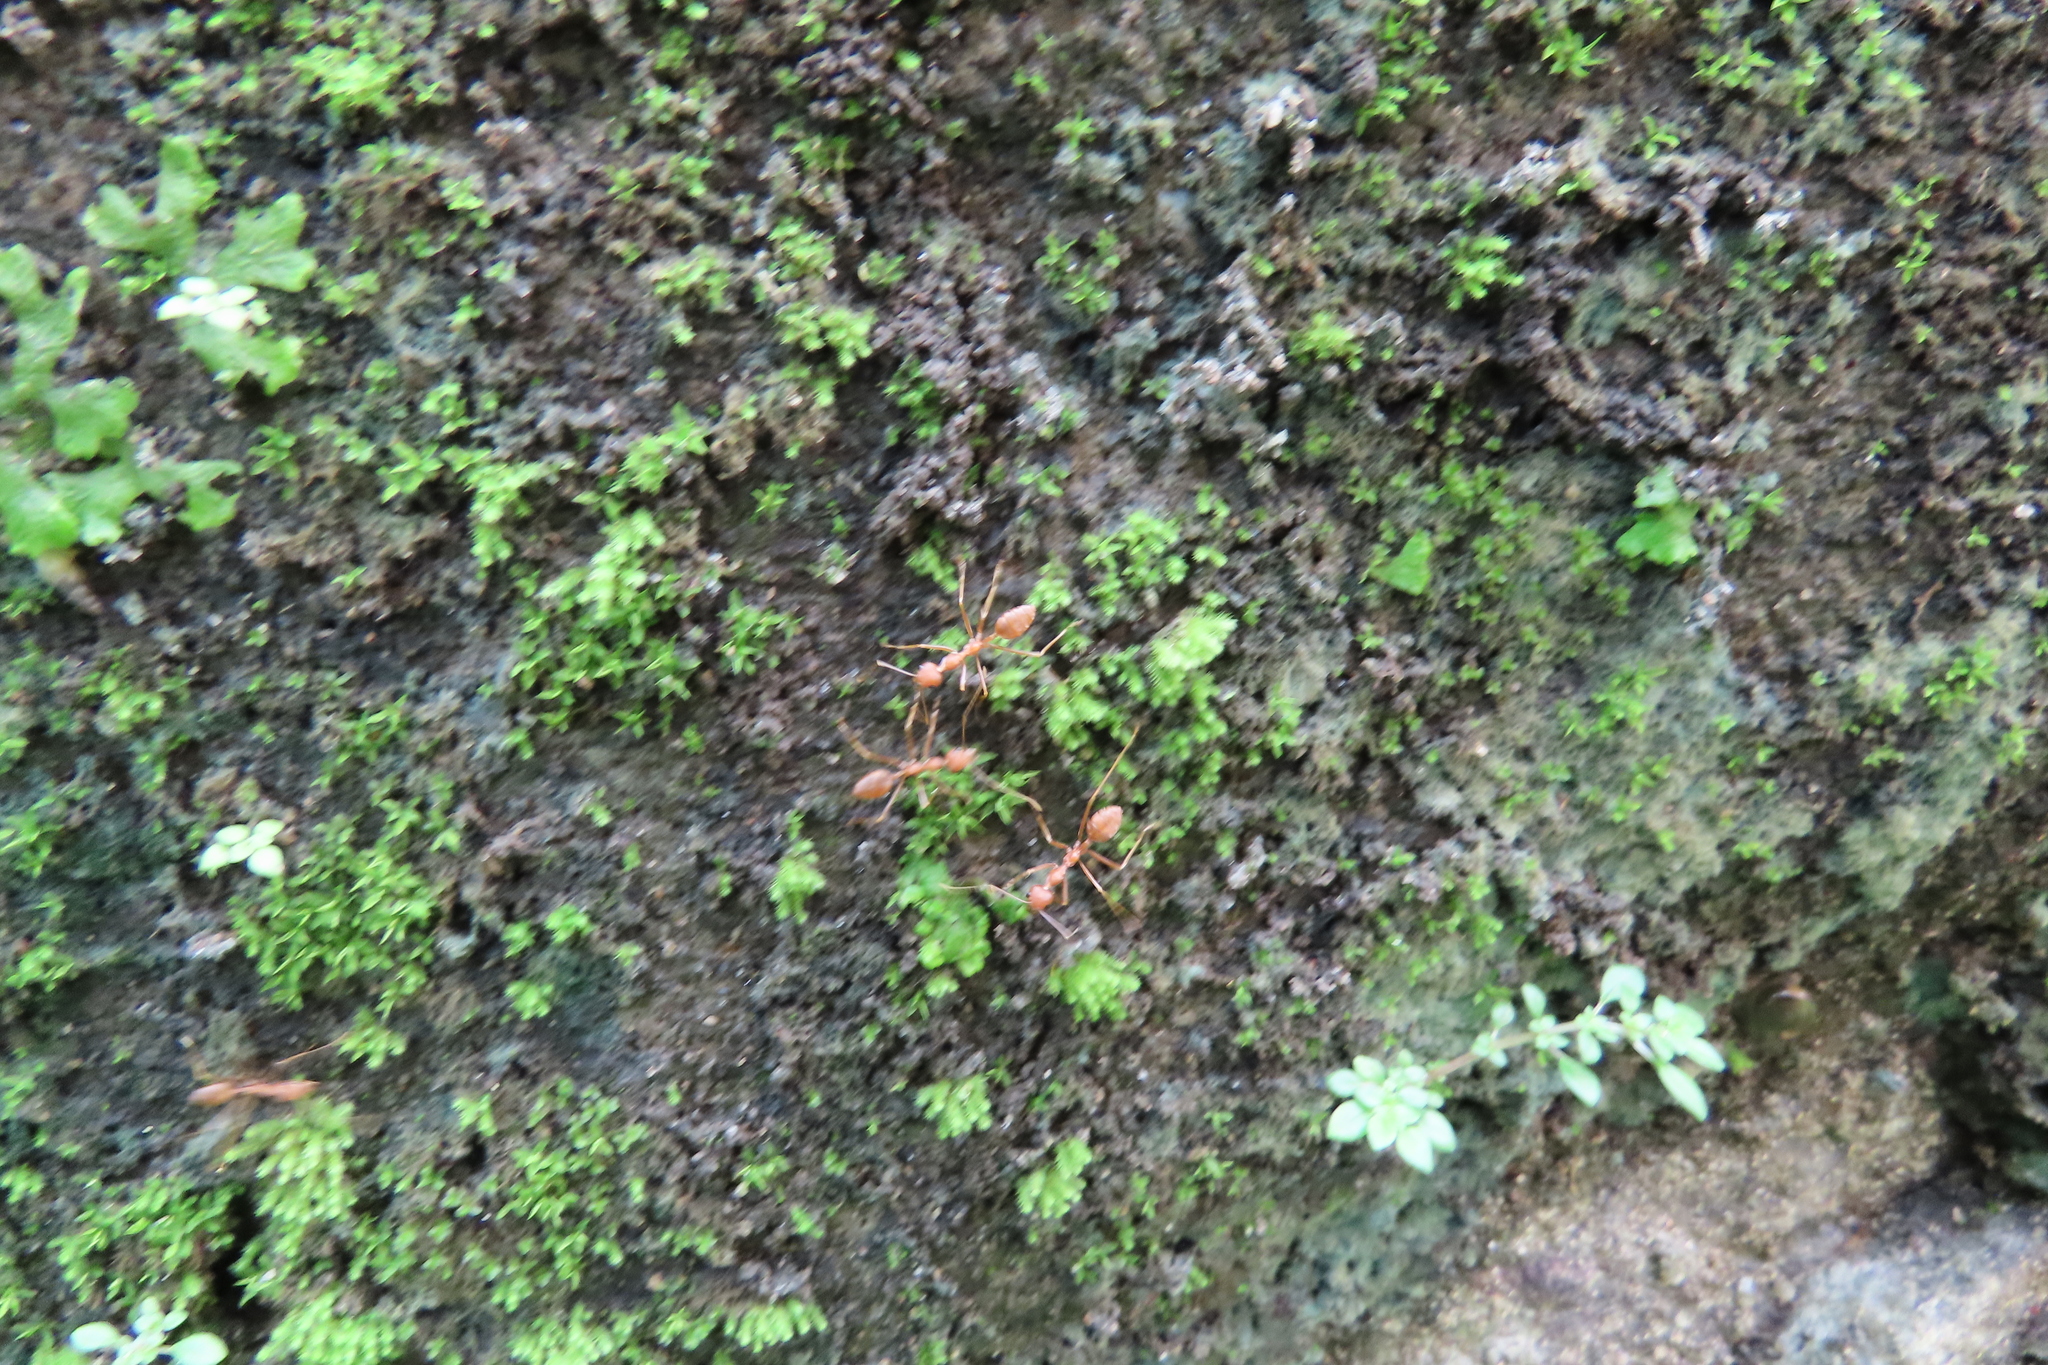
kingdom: Animalia
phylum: Arthropoda
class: Insecta
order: Hymenoptera
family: Formicidae
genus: Oecophylla
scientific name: Oecophylla smaragdina
